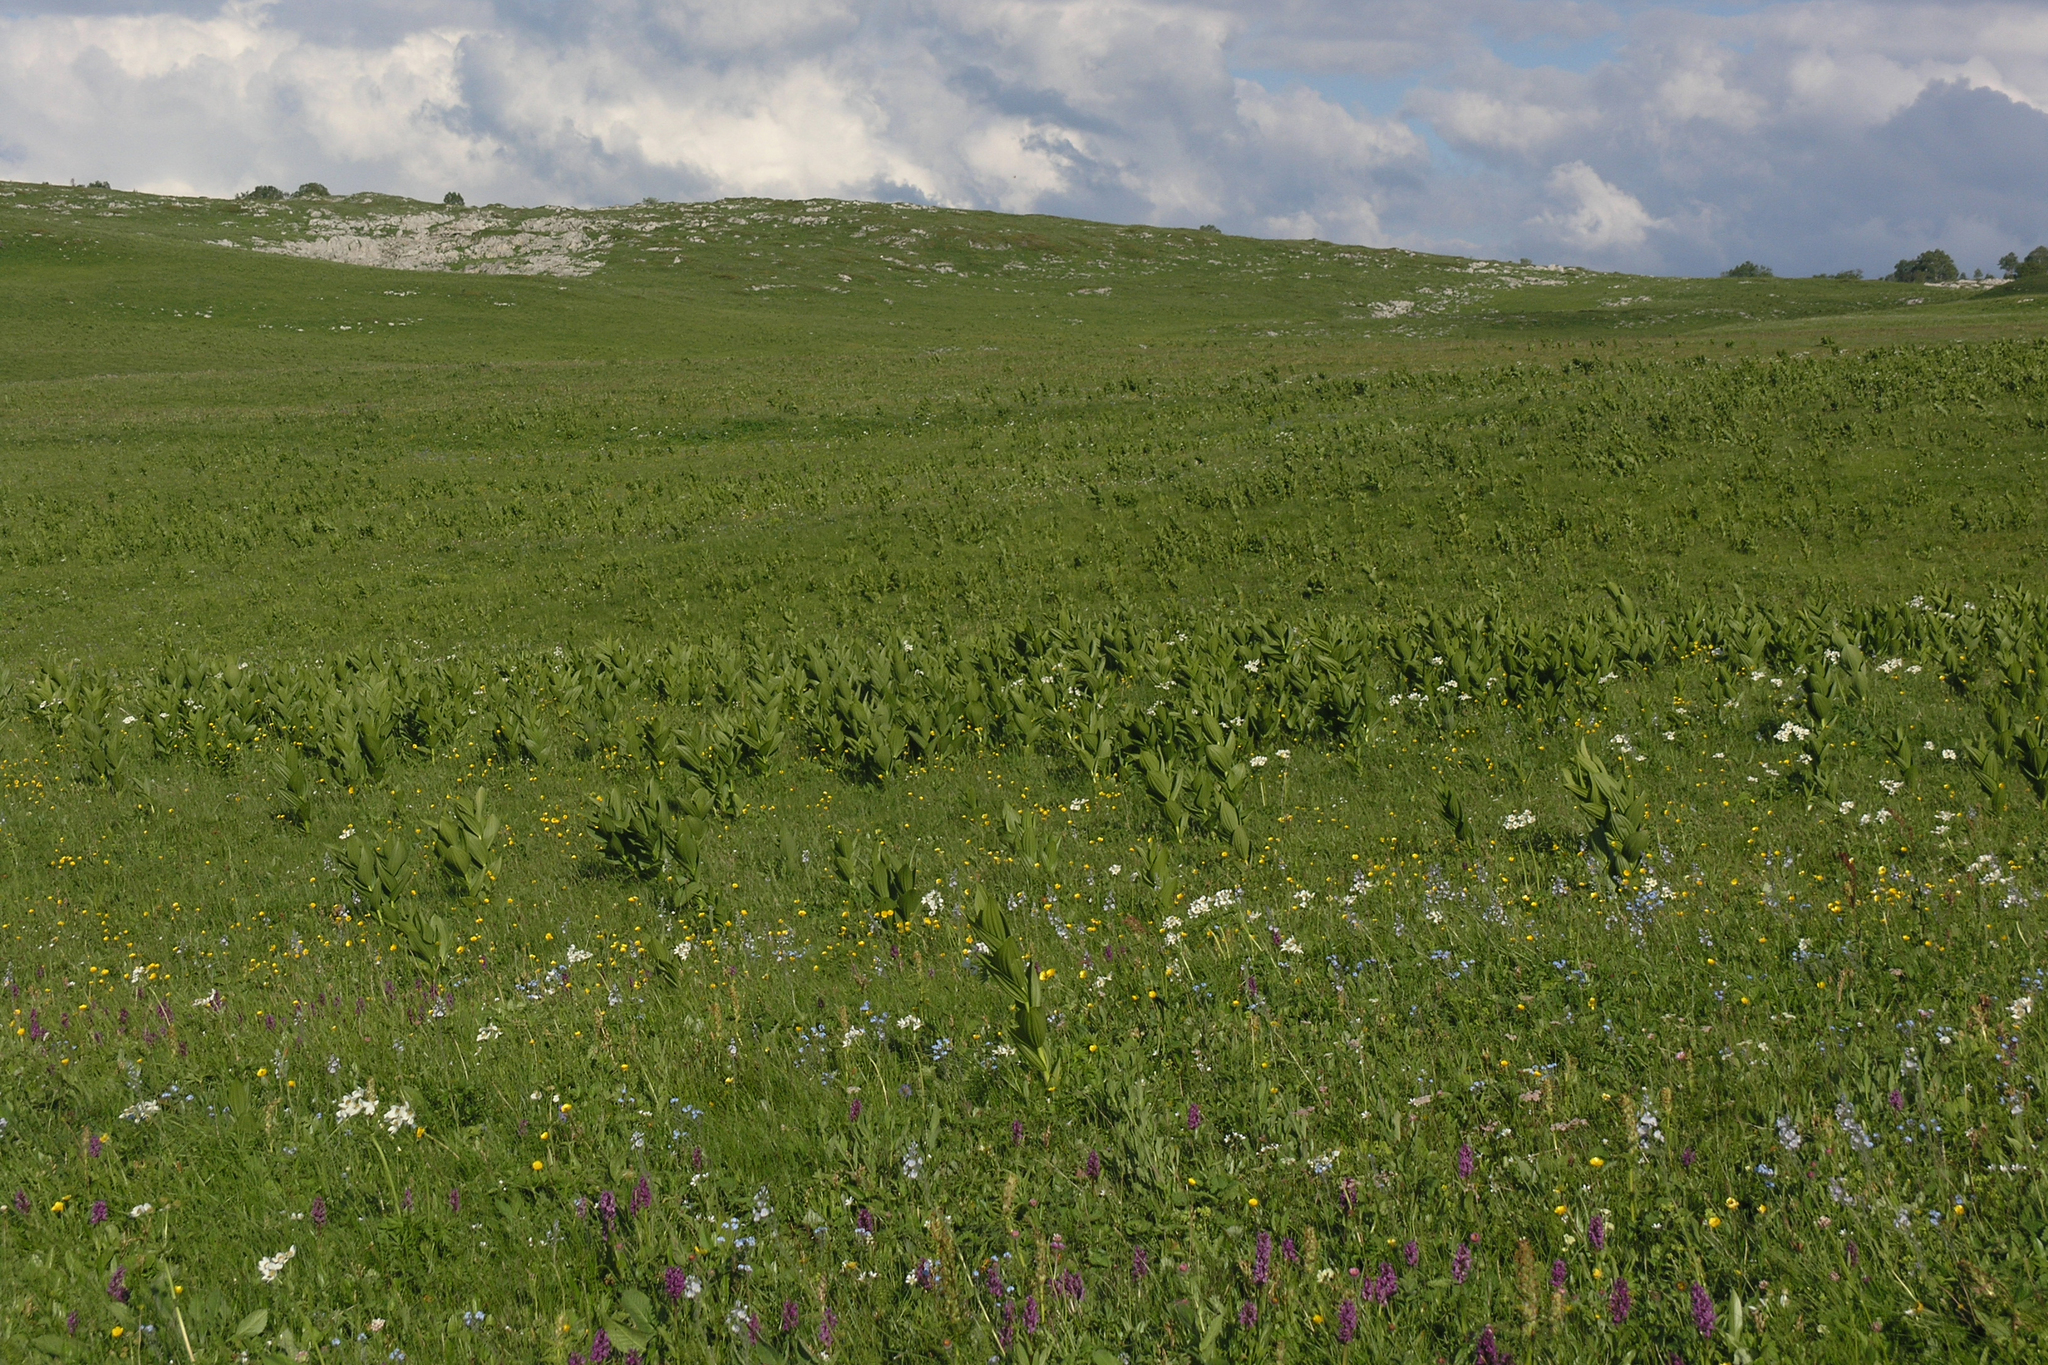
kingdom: Plantae
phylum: Tracheophyta
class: Liliopsida
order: Liliales
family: Melanthiaceae
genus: Veratrum
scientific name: Veratrum lobelianum
